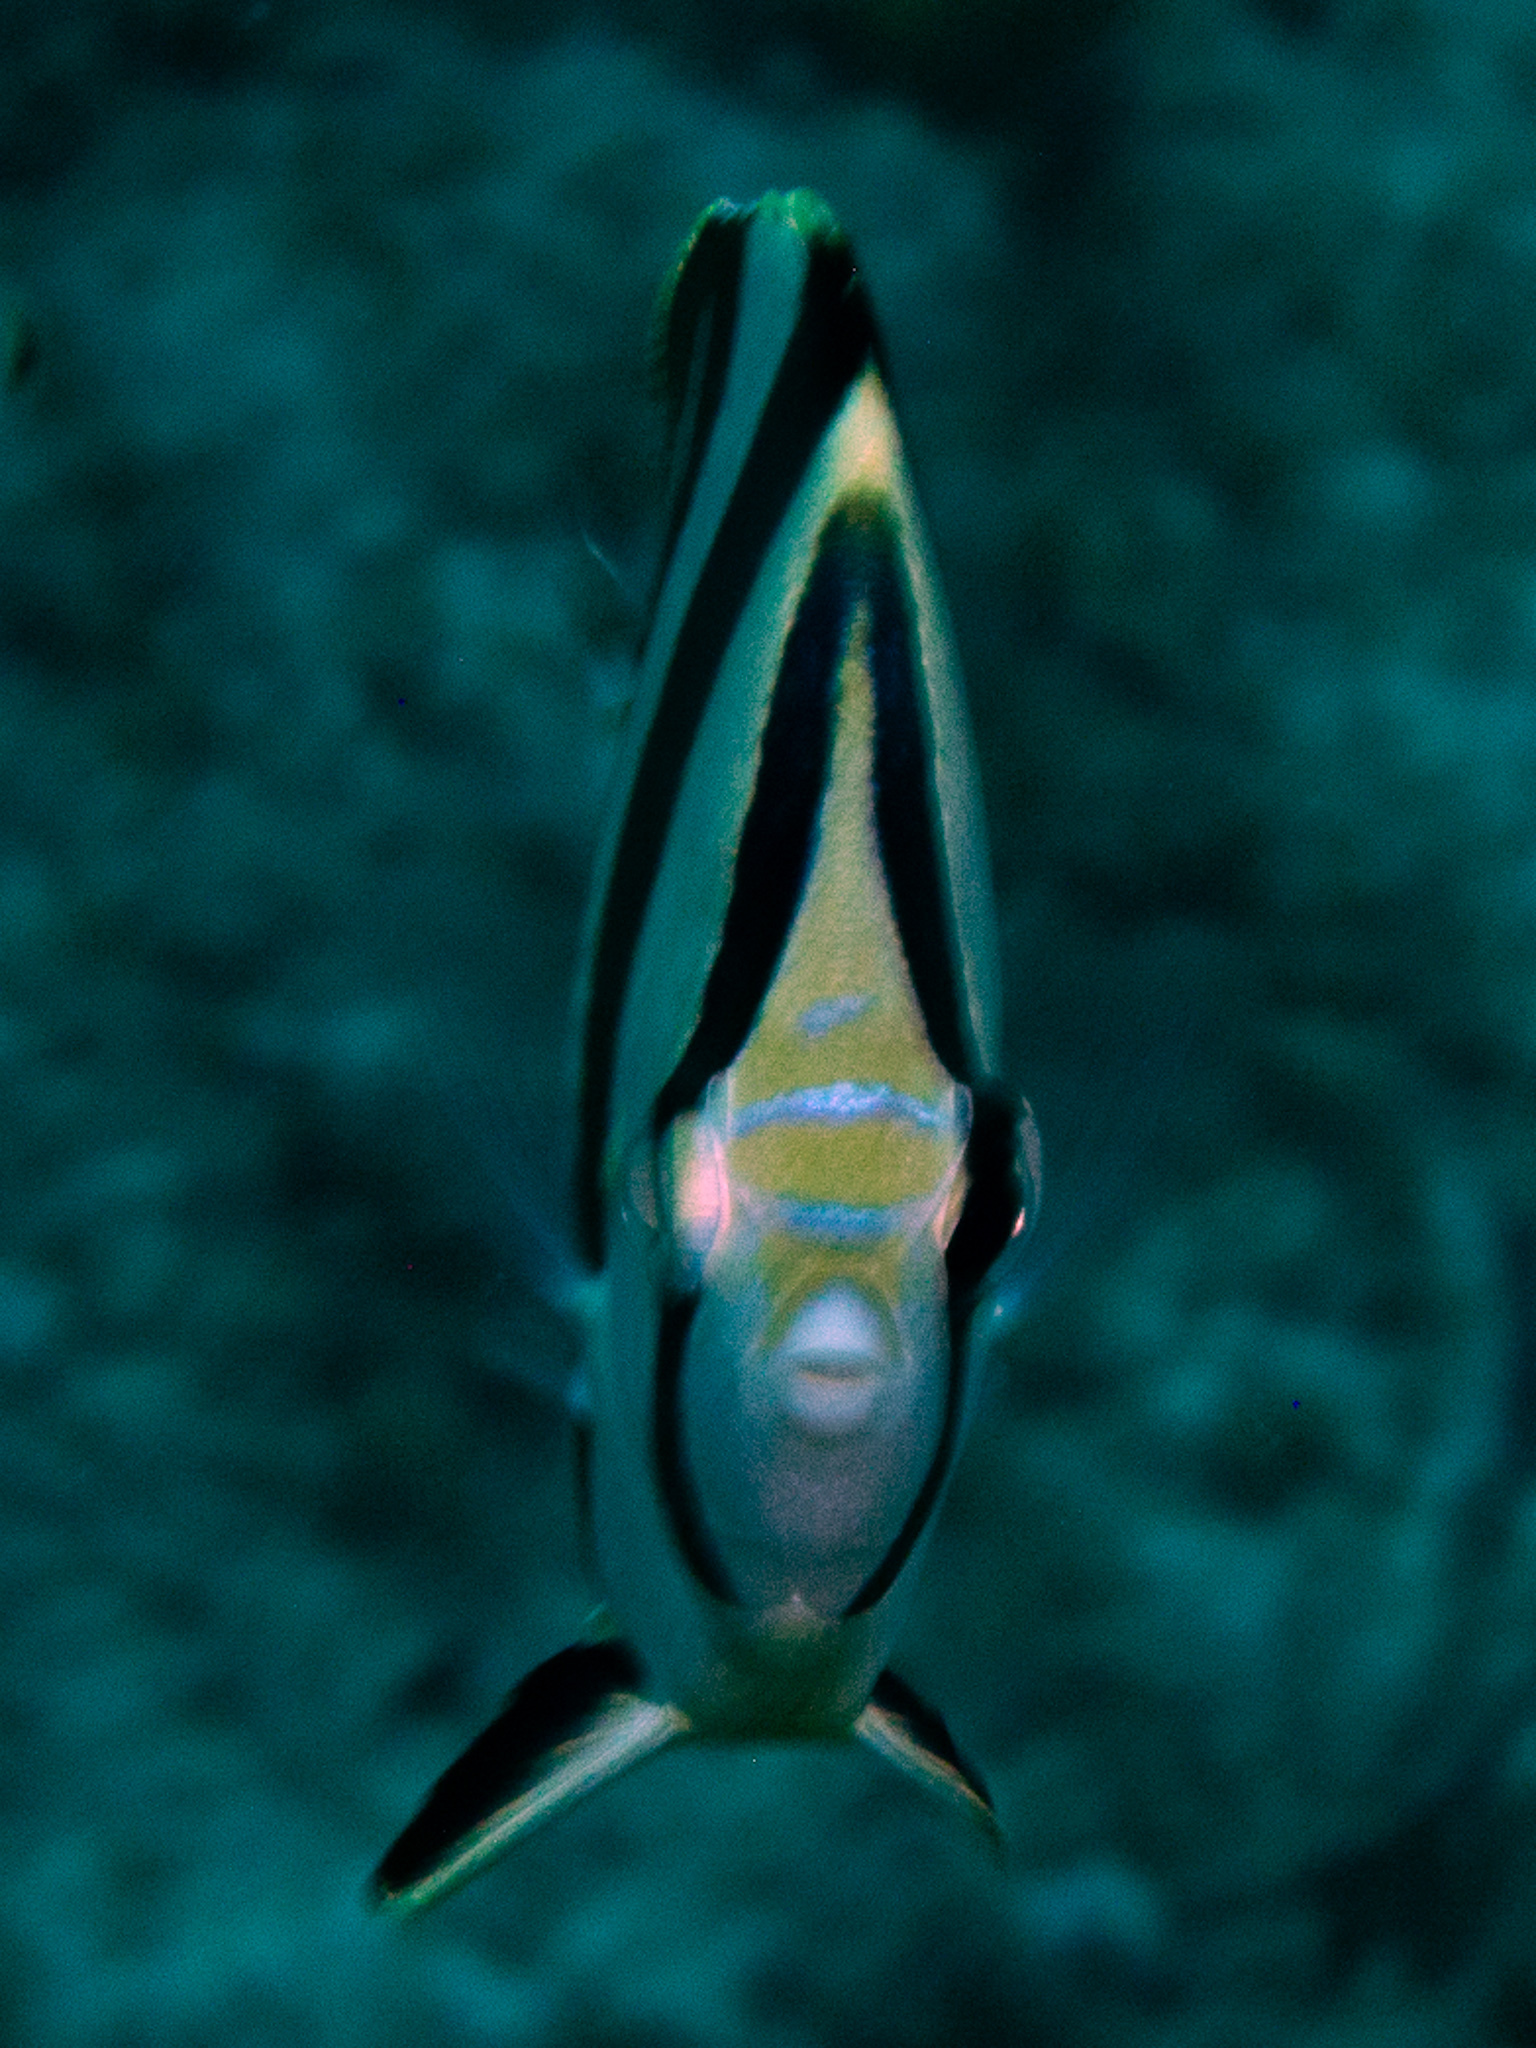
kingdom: Animalia
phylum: Chordata
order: Perciformes
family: Chaetodontidae
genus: Chaetodon
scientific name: Chaetodon striatus
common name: Banded butterflyfish
